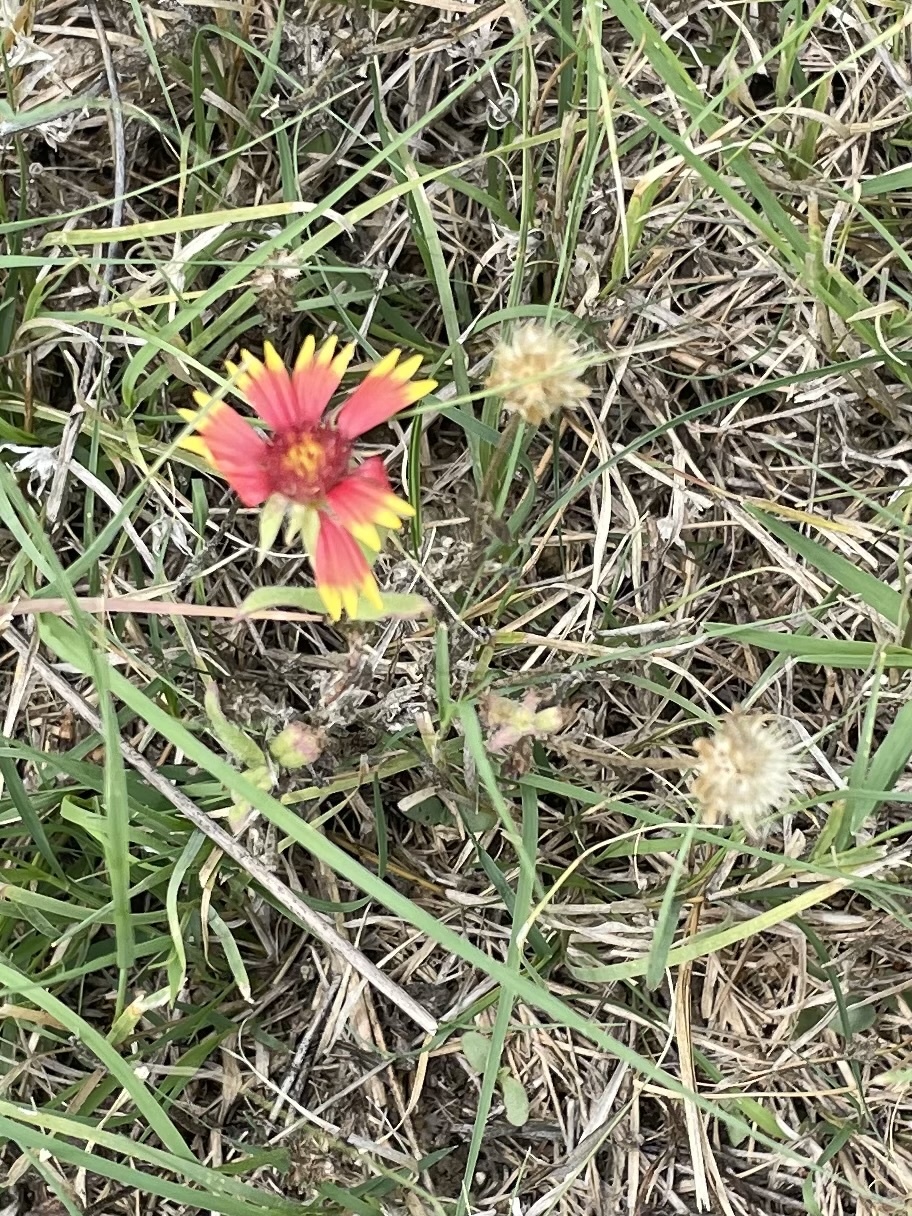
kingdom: Plantae
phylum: Tracheophyta
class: Magnoliopsida
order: Asterales
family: Asteraceae
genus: Gaillardia
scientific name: Gaillardia pulchella
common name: Firewheel
